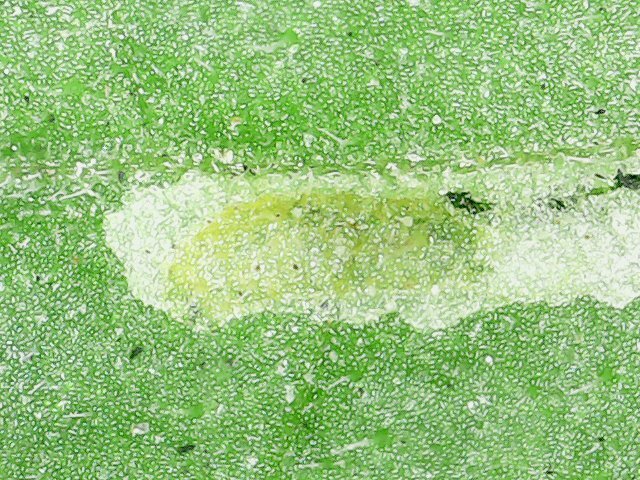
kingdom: Animalia
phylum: Arthropoda
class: Insecta
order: Diptera
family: Agromyzidae
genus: Liriomyza
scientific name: Liriomyza bryoniae
